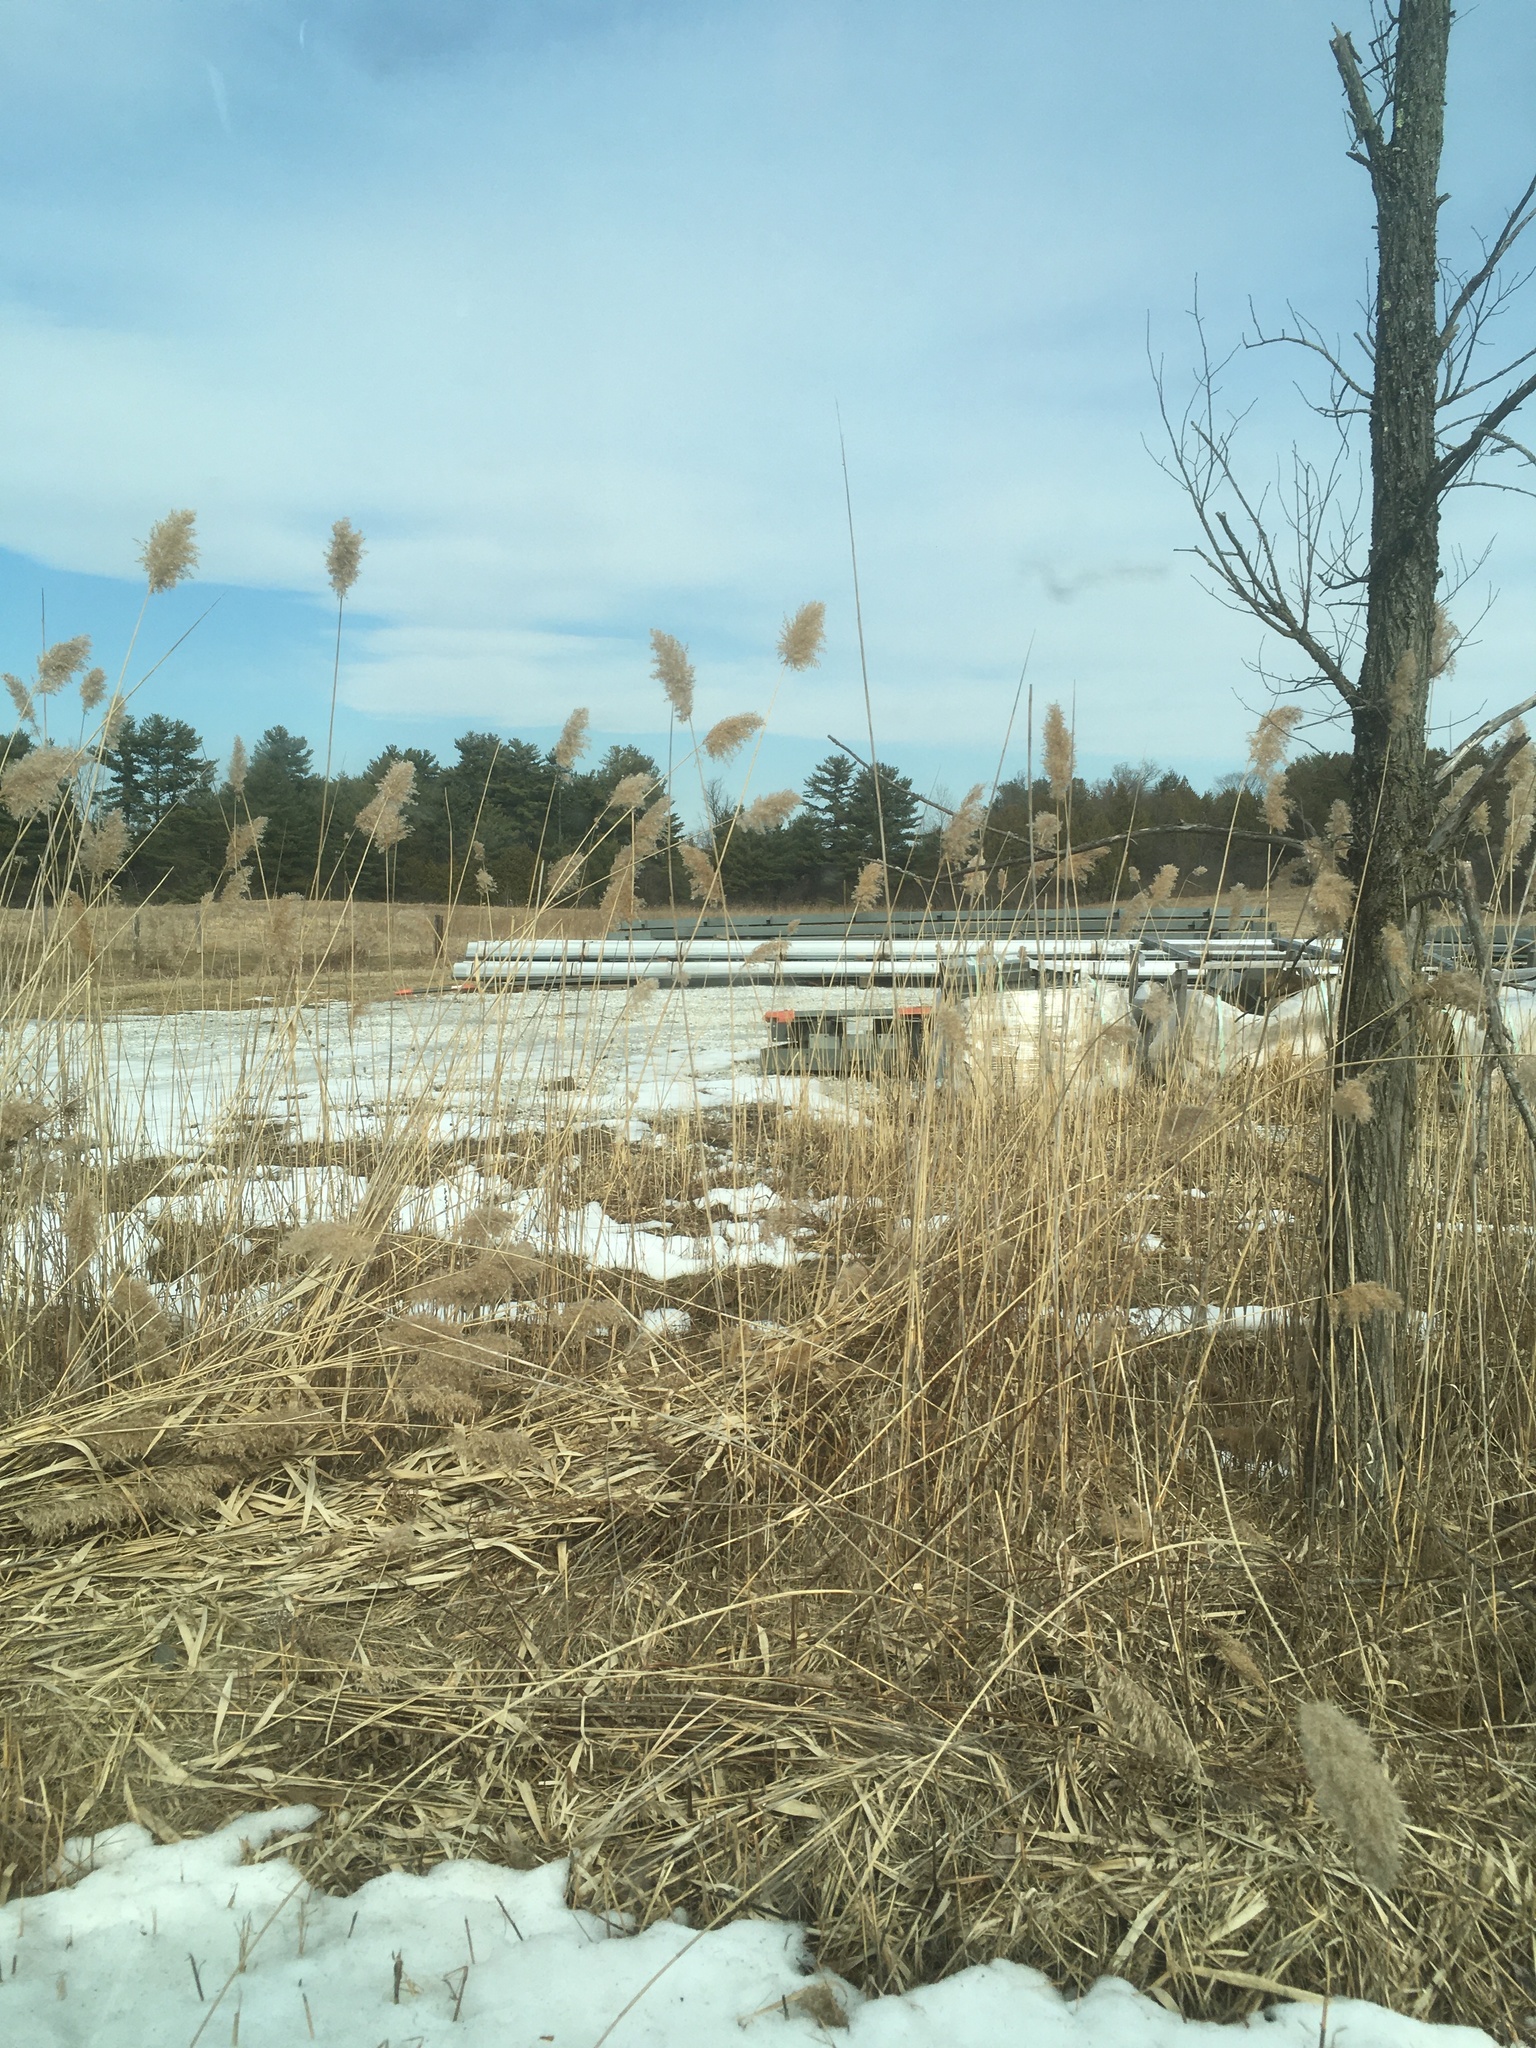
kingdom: Plantae
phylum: Tracheophyta
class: Liliopsida
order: Poales
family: Poaceae
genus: Phragmites
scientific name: Phragmites australis
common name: Common reed
